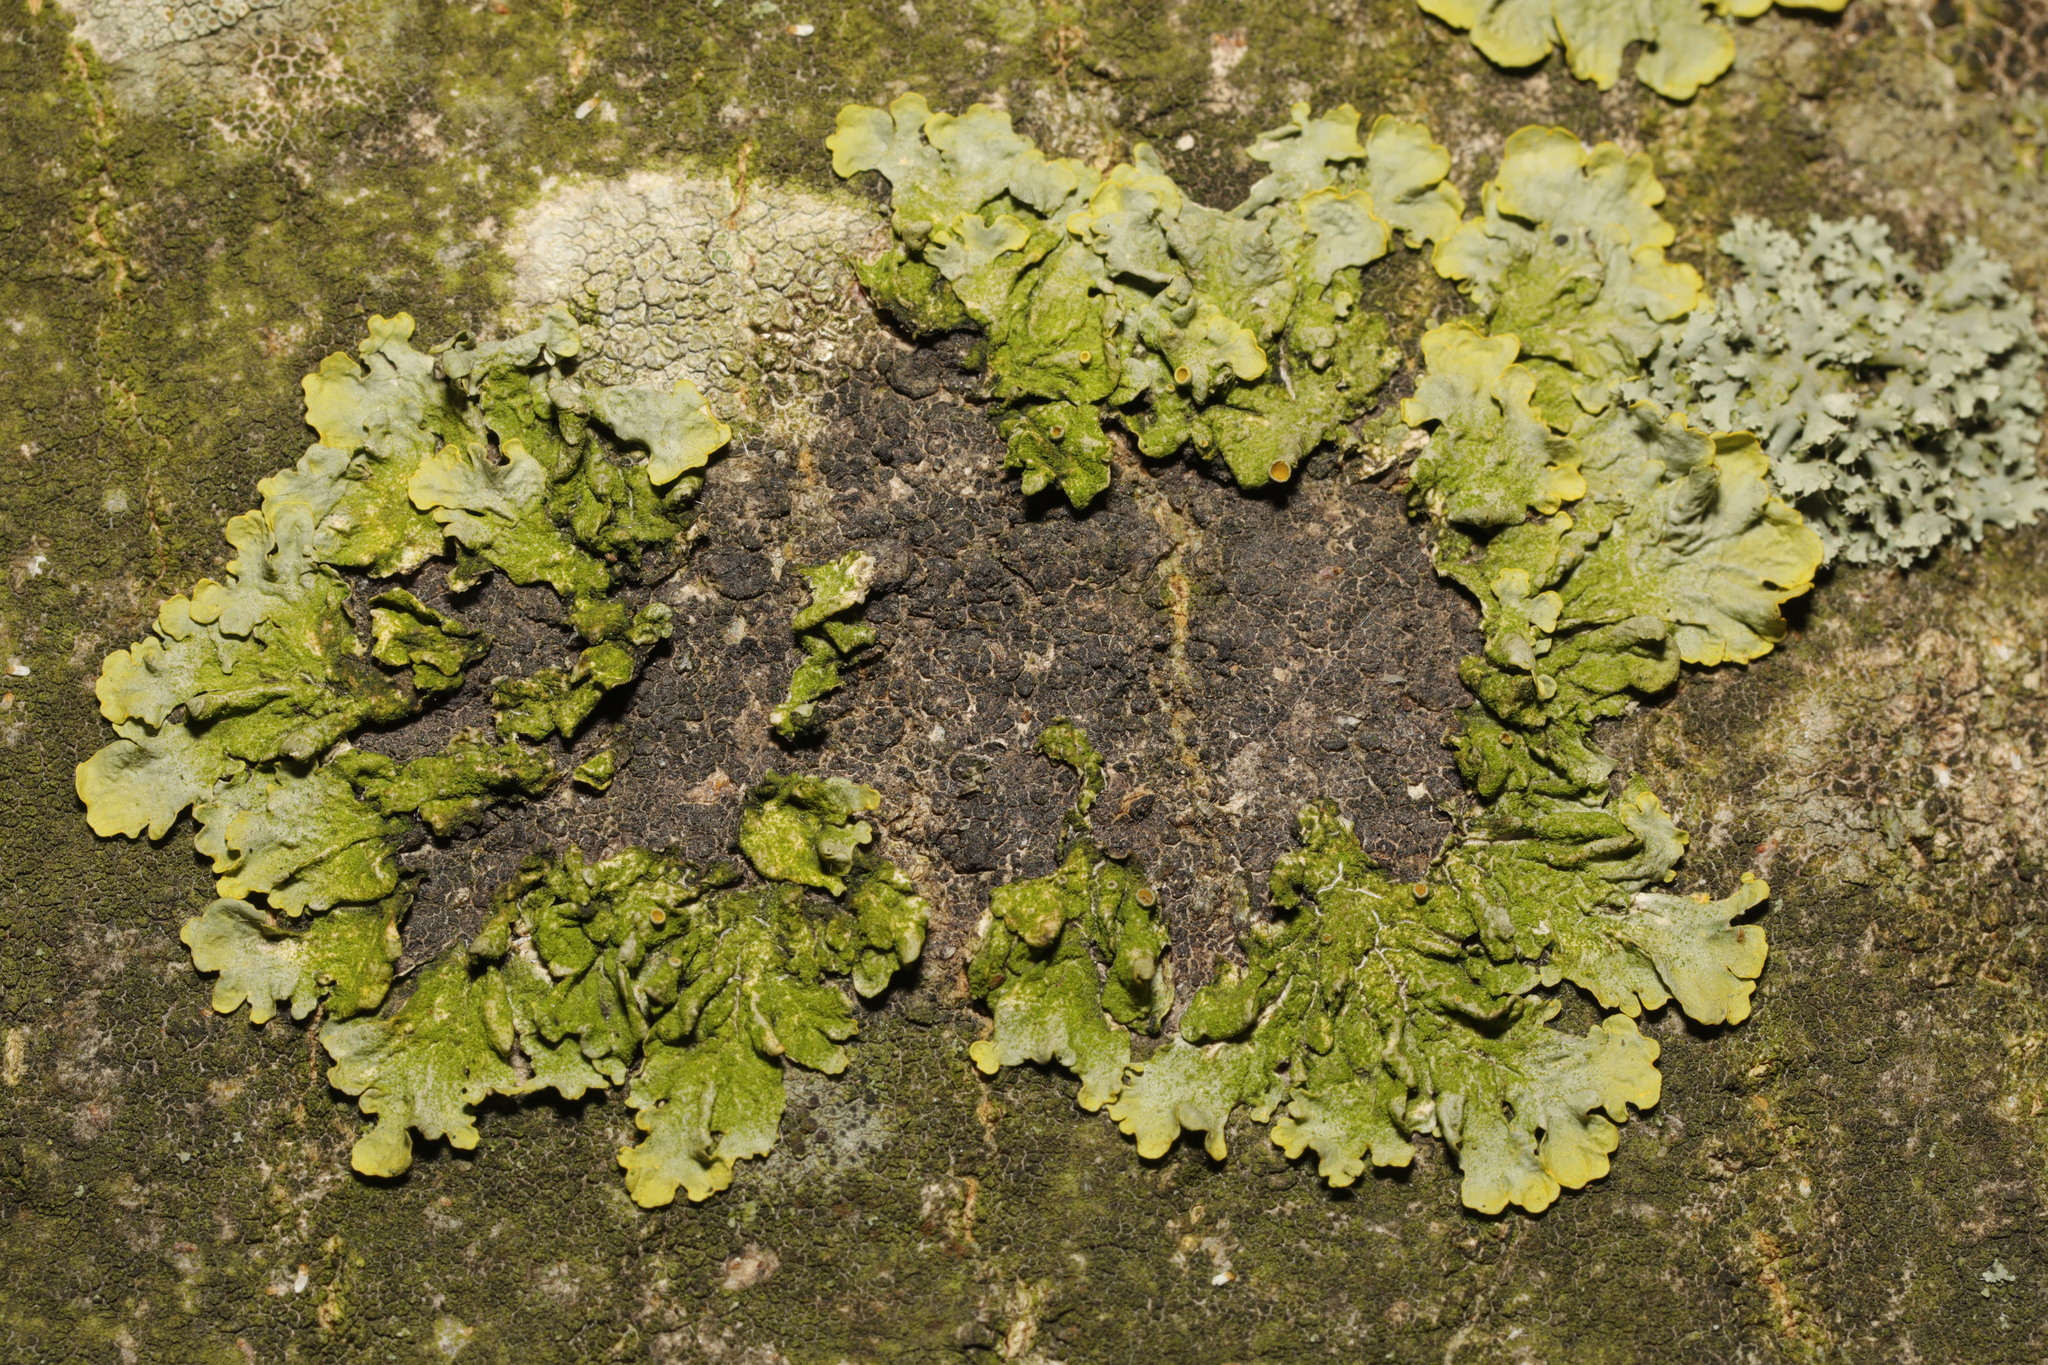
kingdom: Fungi
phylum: Ascomycota
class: Lecanoromycetes
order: Teloschistales
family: Teloschistaceae
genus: Xanthoria
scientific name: Xanthoria parietina
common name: Common orange lichen
